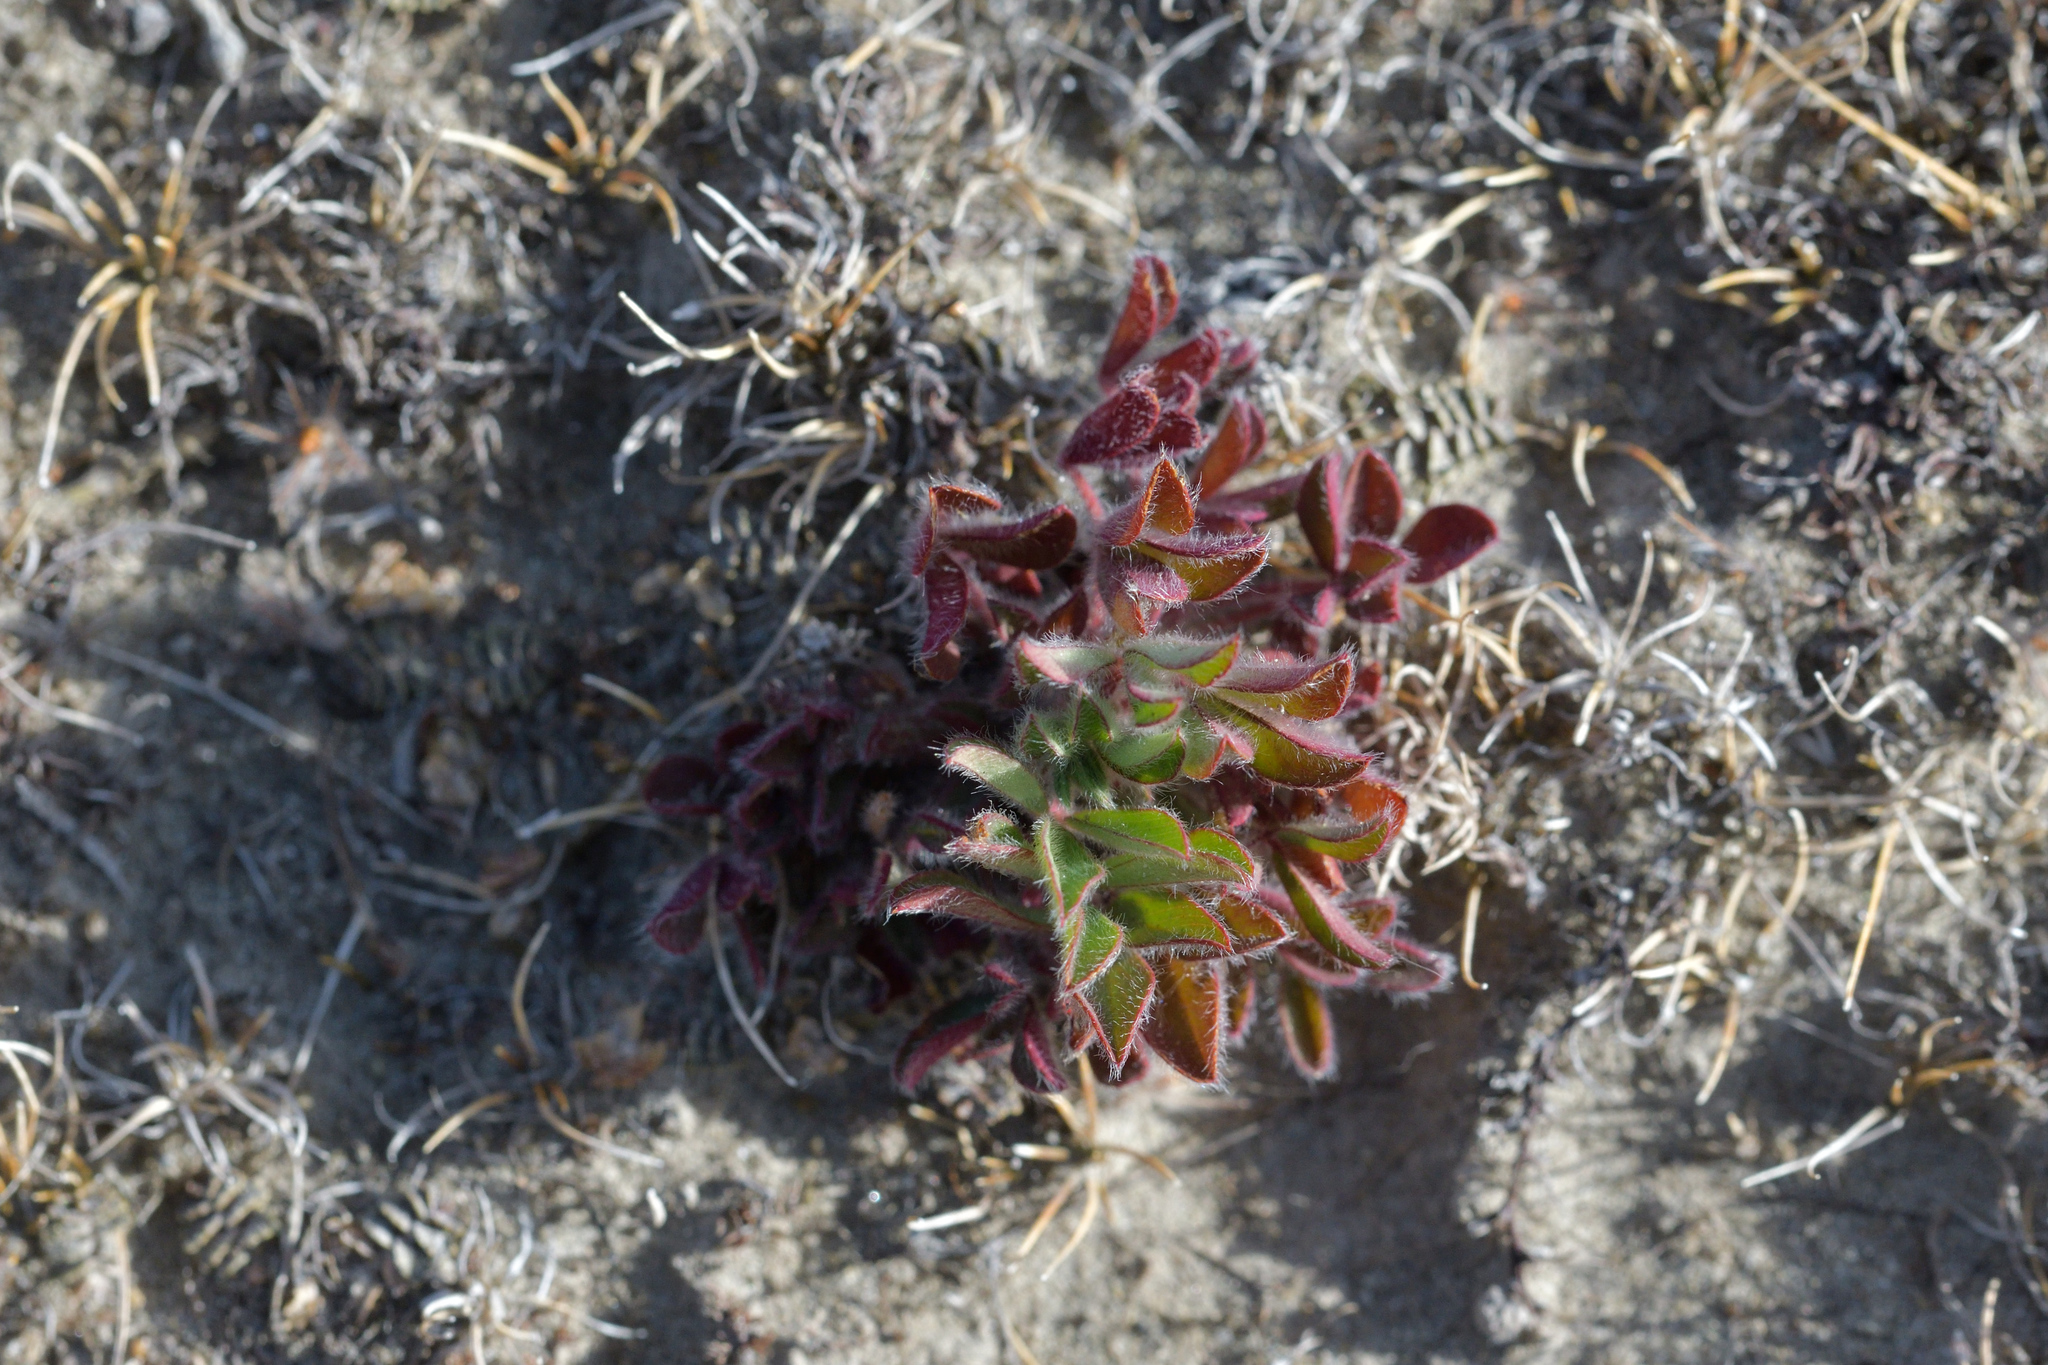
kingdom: Plantae
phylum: Tracheophyta
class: Magnoliopsida
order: Fabales
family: Fabaceae
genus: Trifolium
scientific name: Trifolium arvense
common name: Hare's-foot clover
